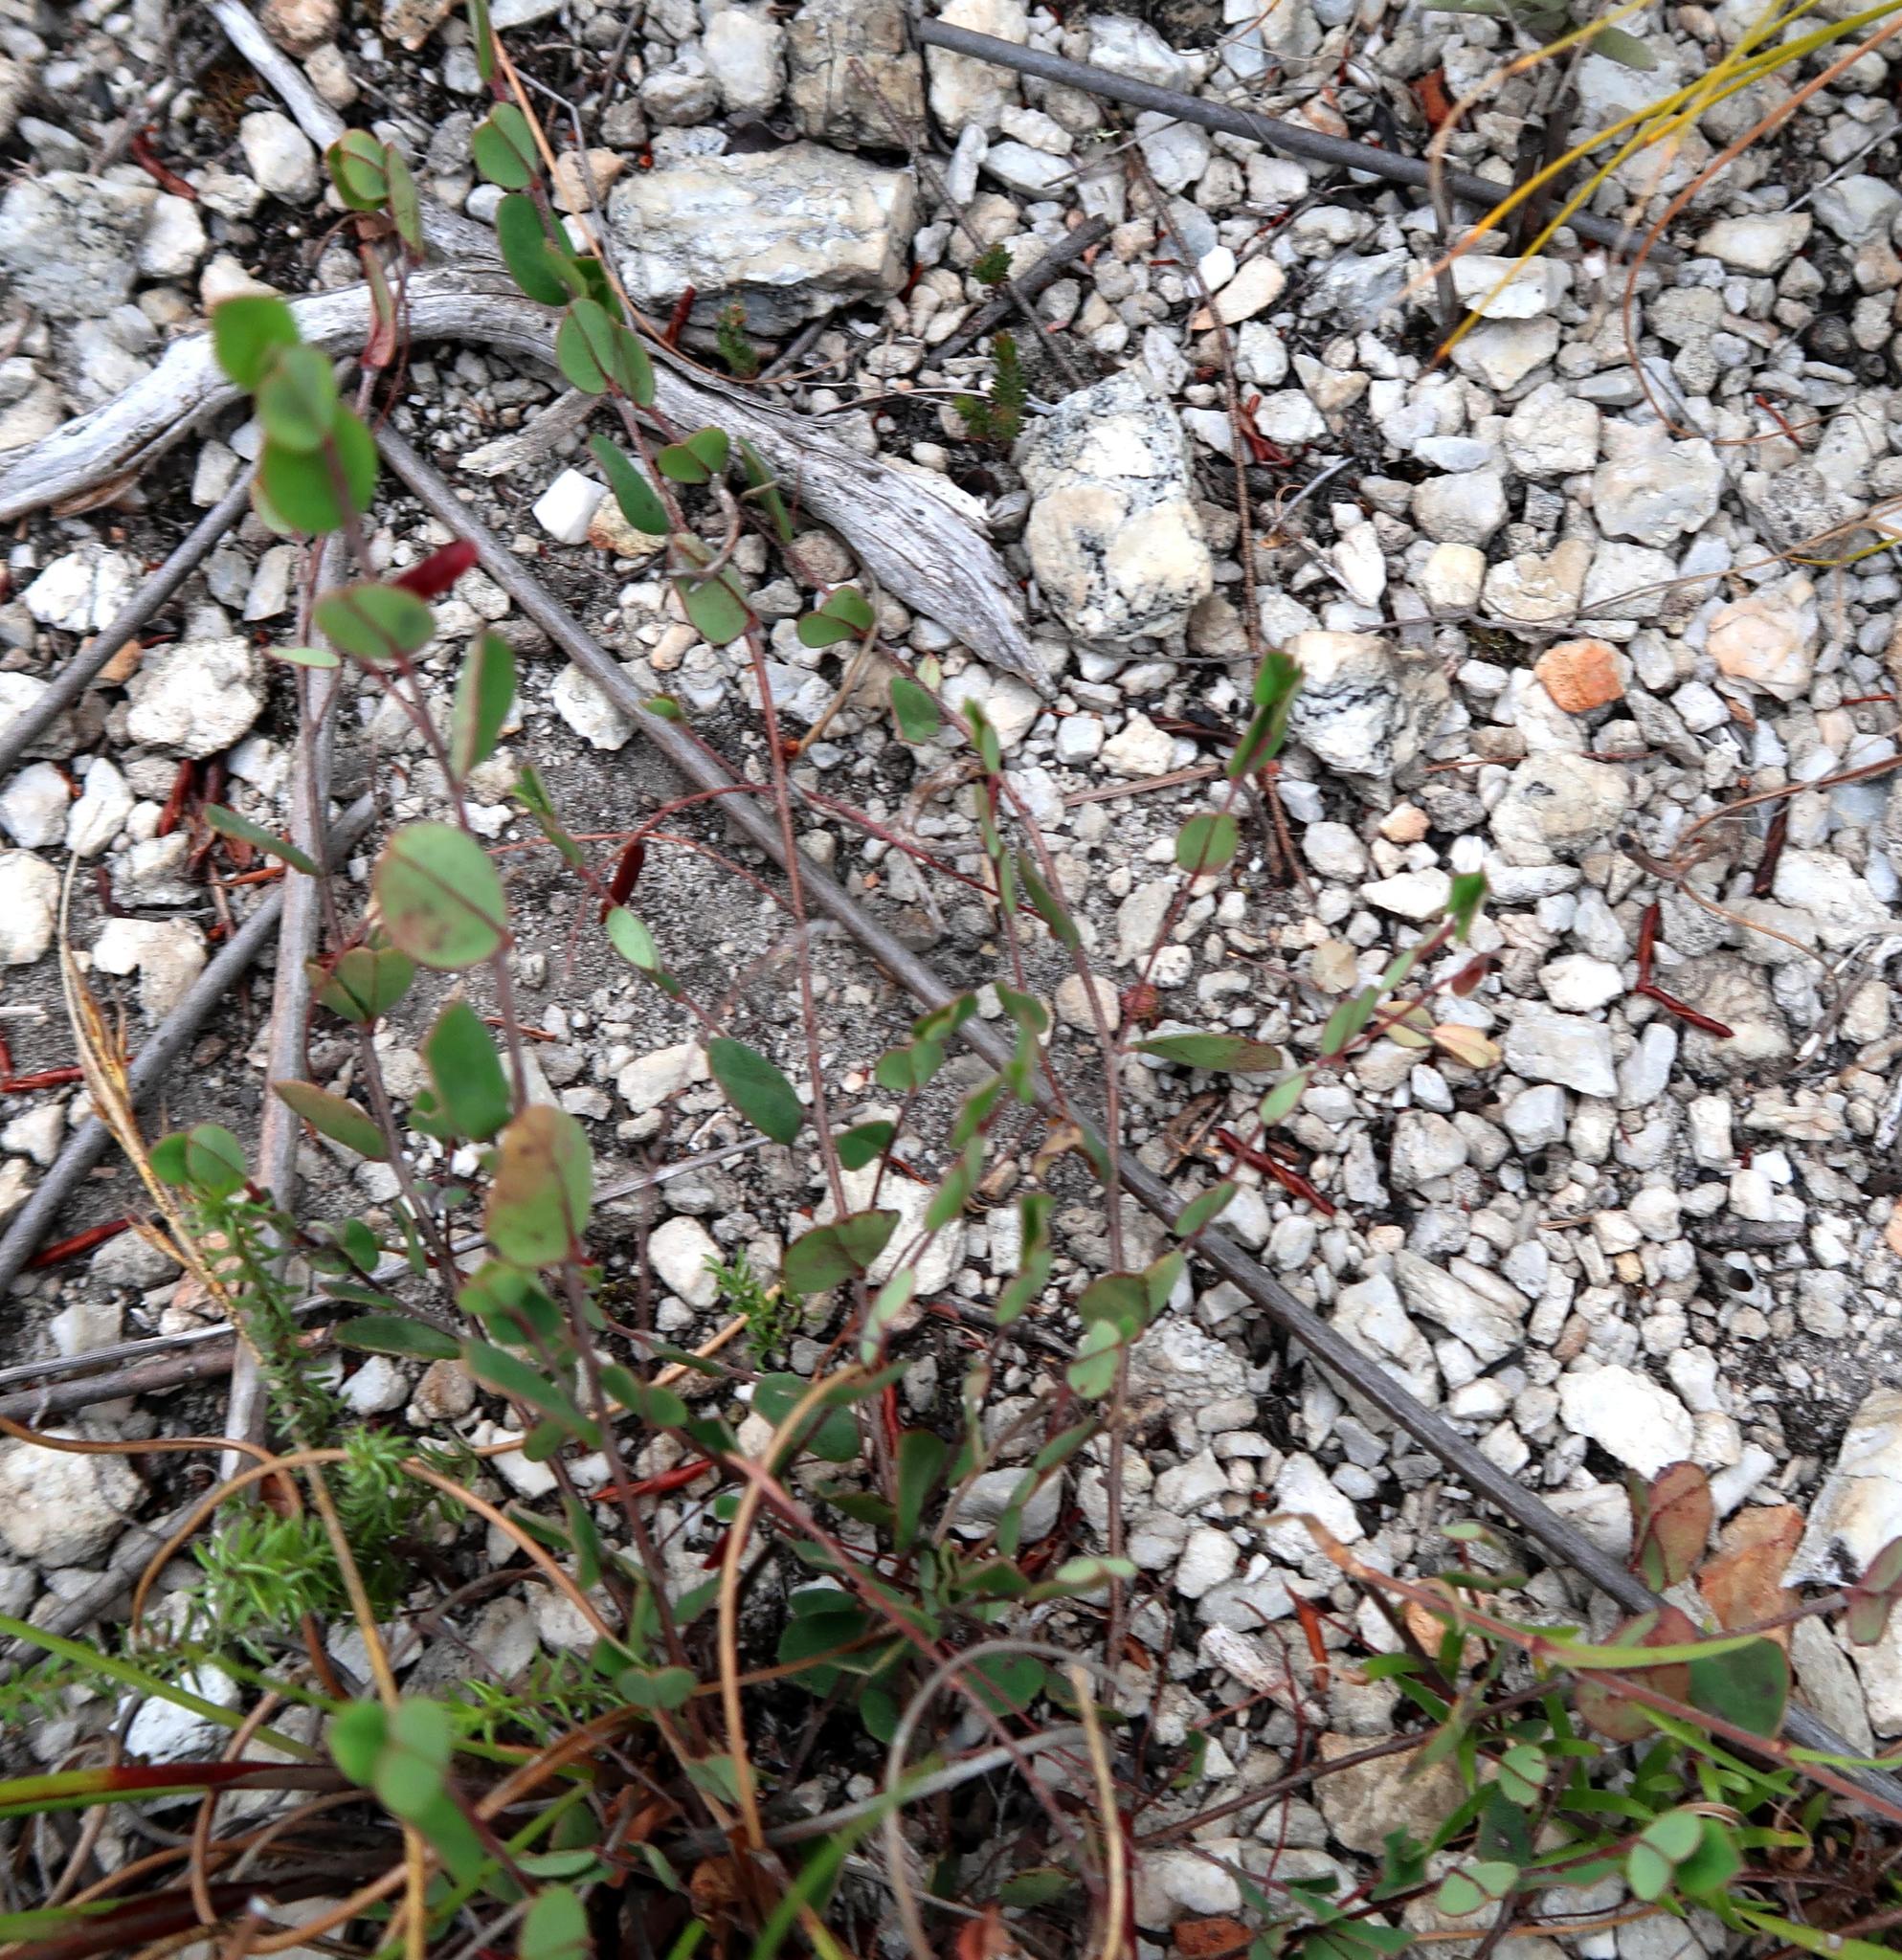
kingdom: Plantae
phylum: Tracheophyta
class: Magnoliopsida
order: Fabales
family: Fabaceae
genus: Indigofera
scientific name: Indigofera sarmentosa
